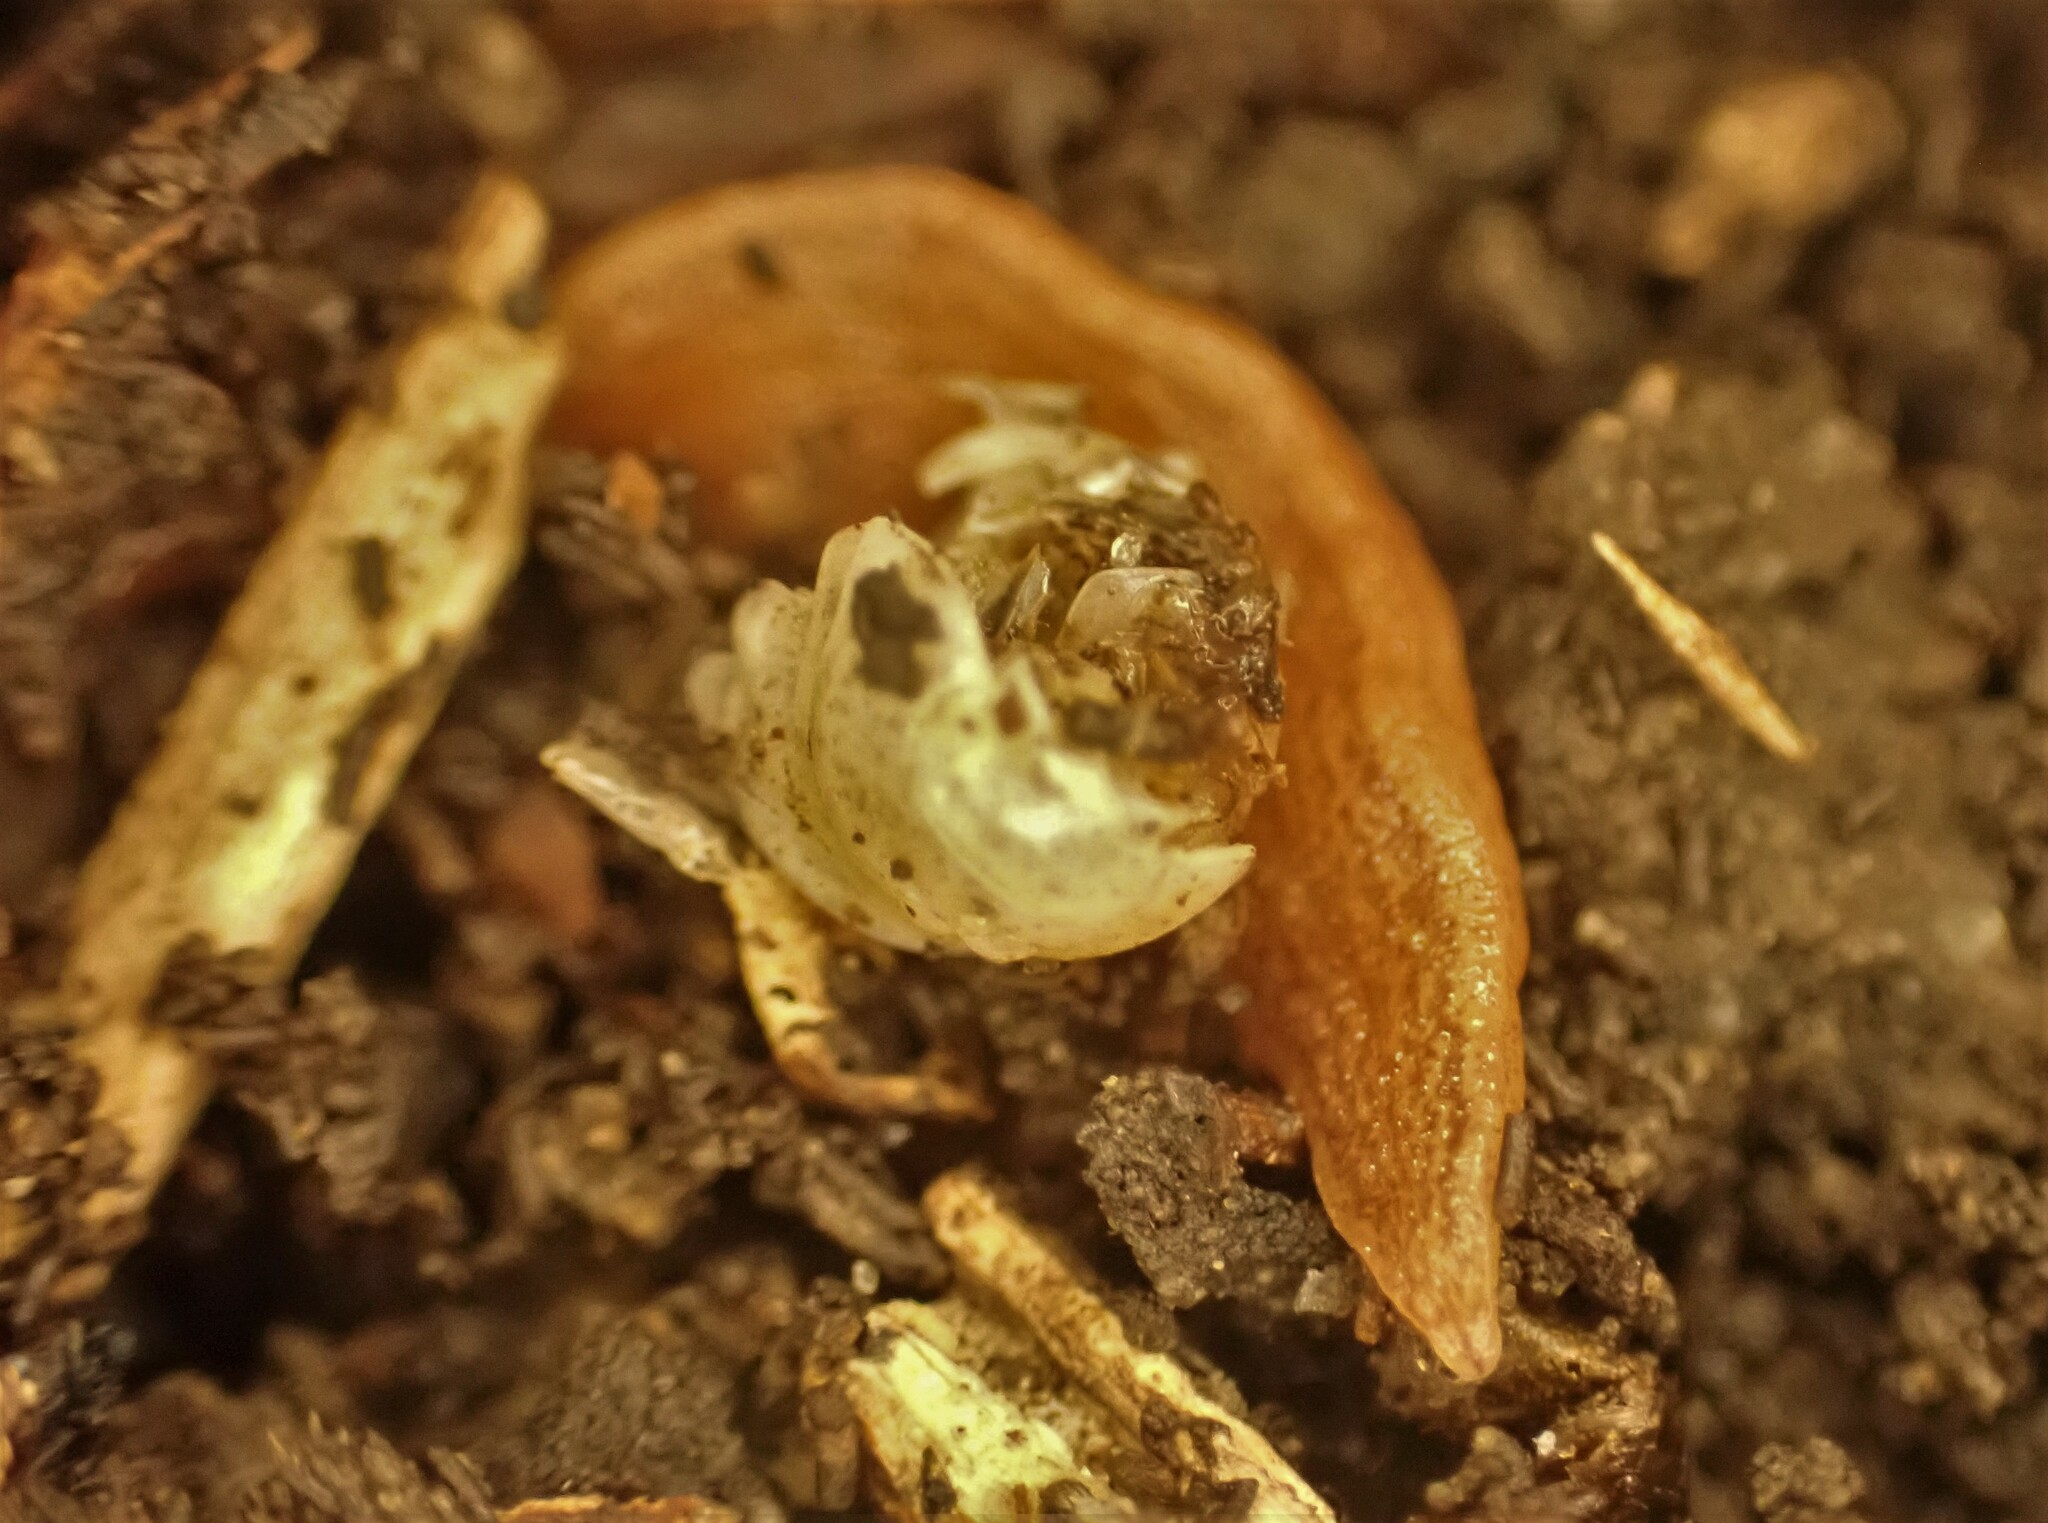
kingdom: Animalia
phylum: Platyhelminthes
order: Tricladida
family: Geoplanidae
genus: Artioposthia
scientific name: Artioposthia
